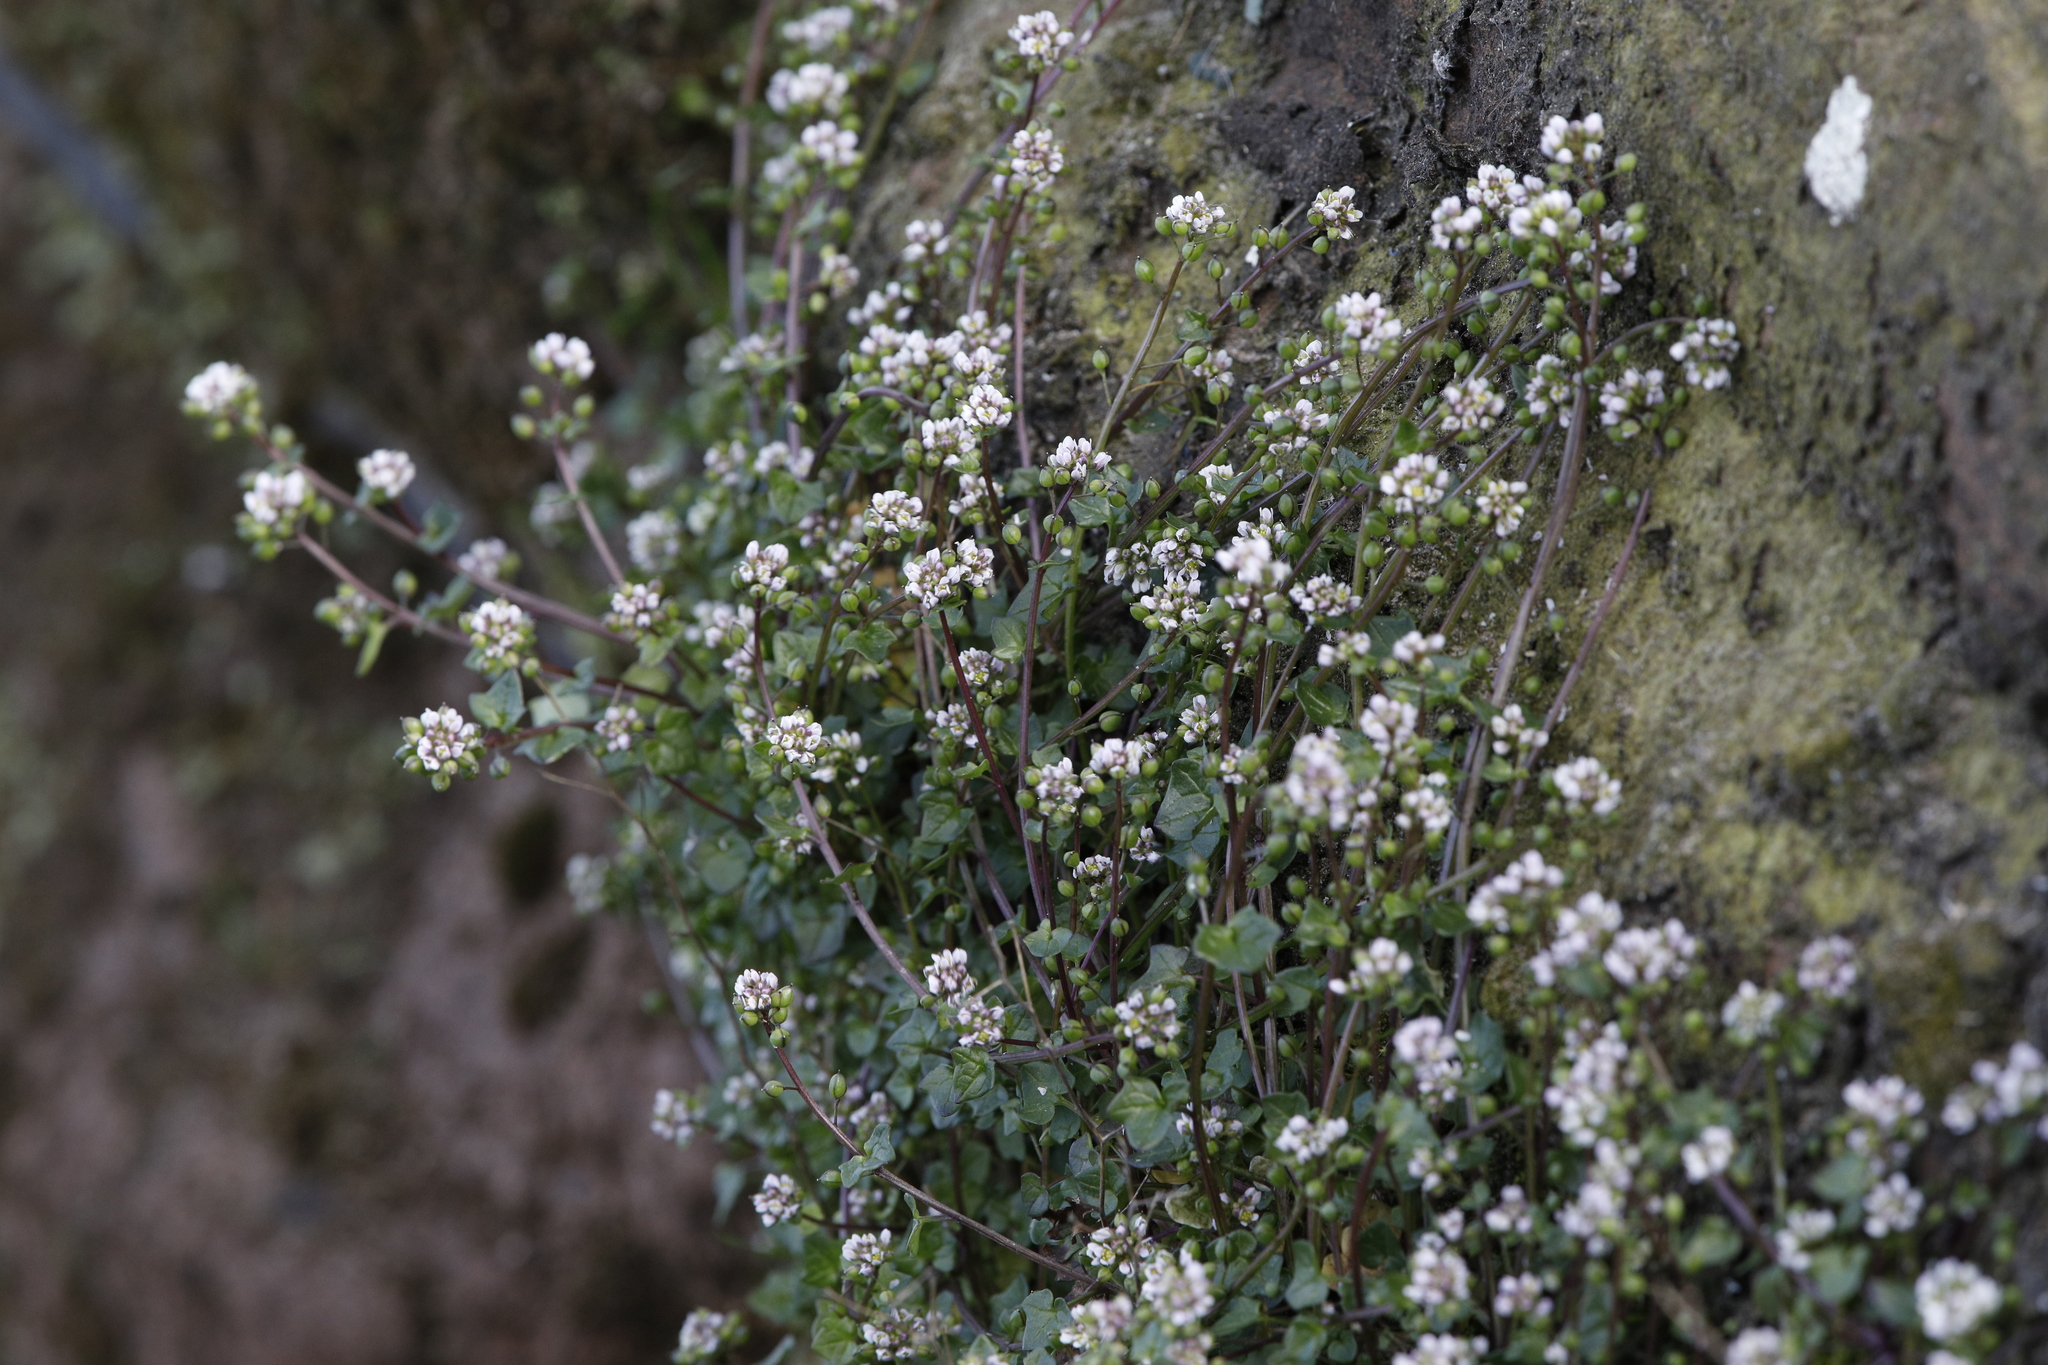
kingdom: Plantae
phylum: Tracheophyta
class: Magnoliopsida
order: Brassicales
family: Brassicaceae
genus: Cochlearia
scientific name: Cochlearia danica
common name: Early scurvygrass
